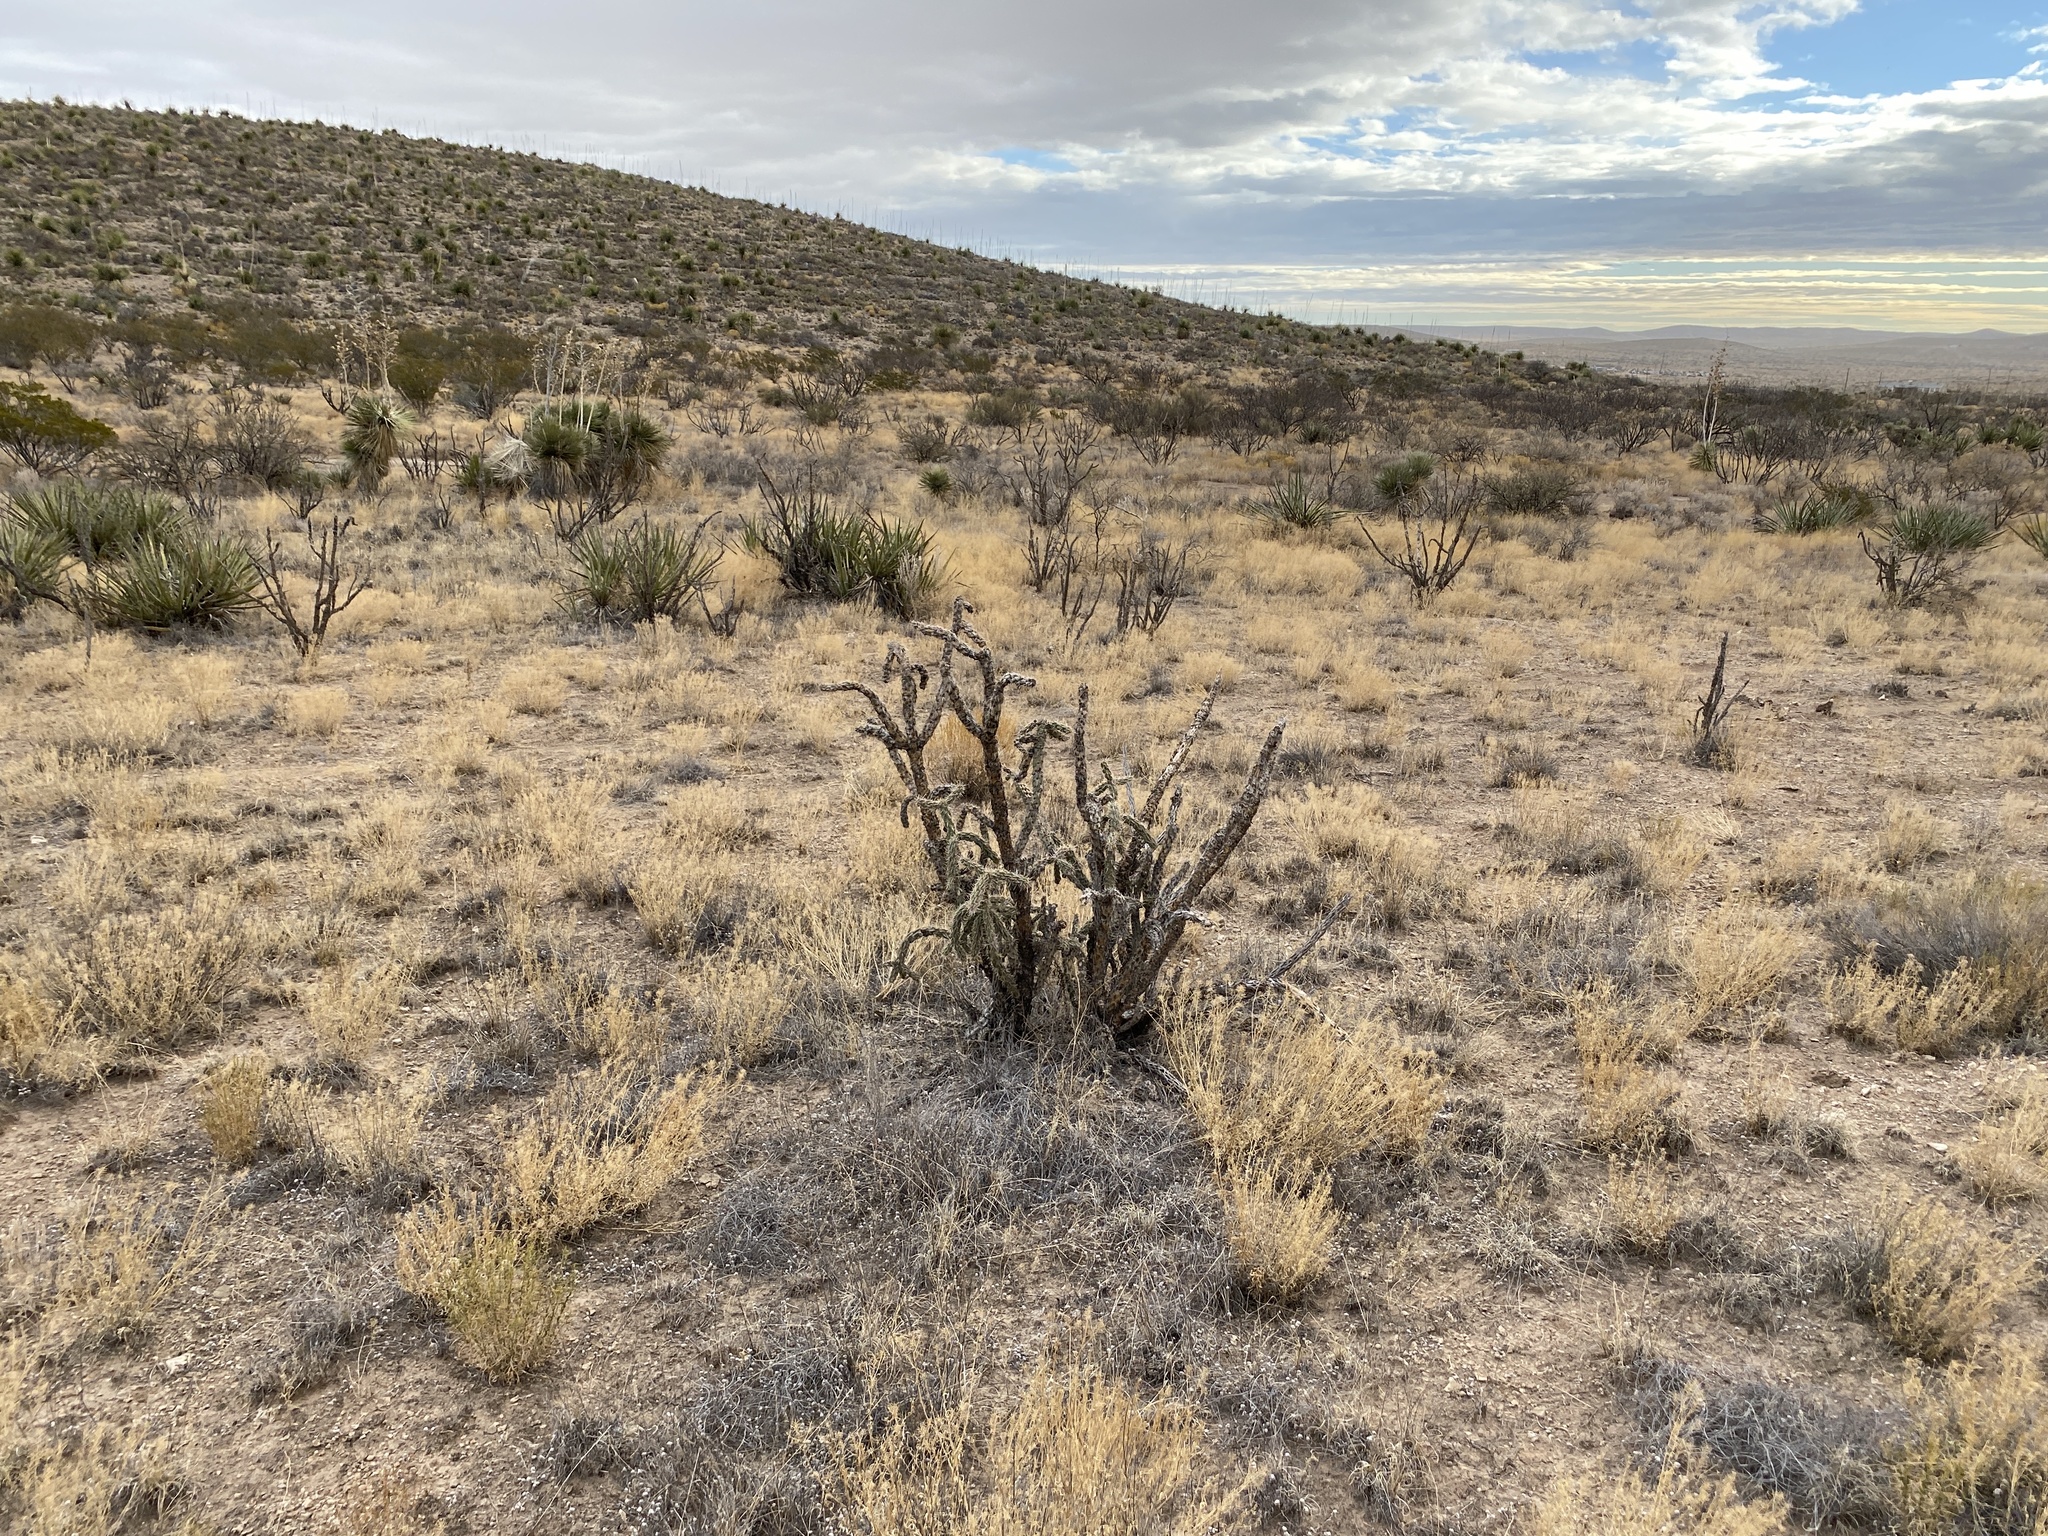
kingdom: Plantae
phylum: Tracheophyta
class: Magnoliopsida
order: Caryophyllales
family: Cactaceae
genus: Cylindropuntia
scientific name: Cylindropuntia imbricata
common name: Candelabrum cactus
